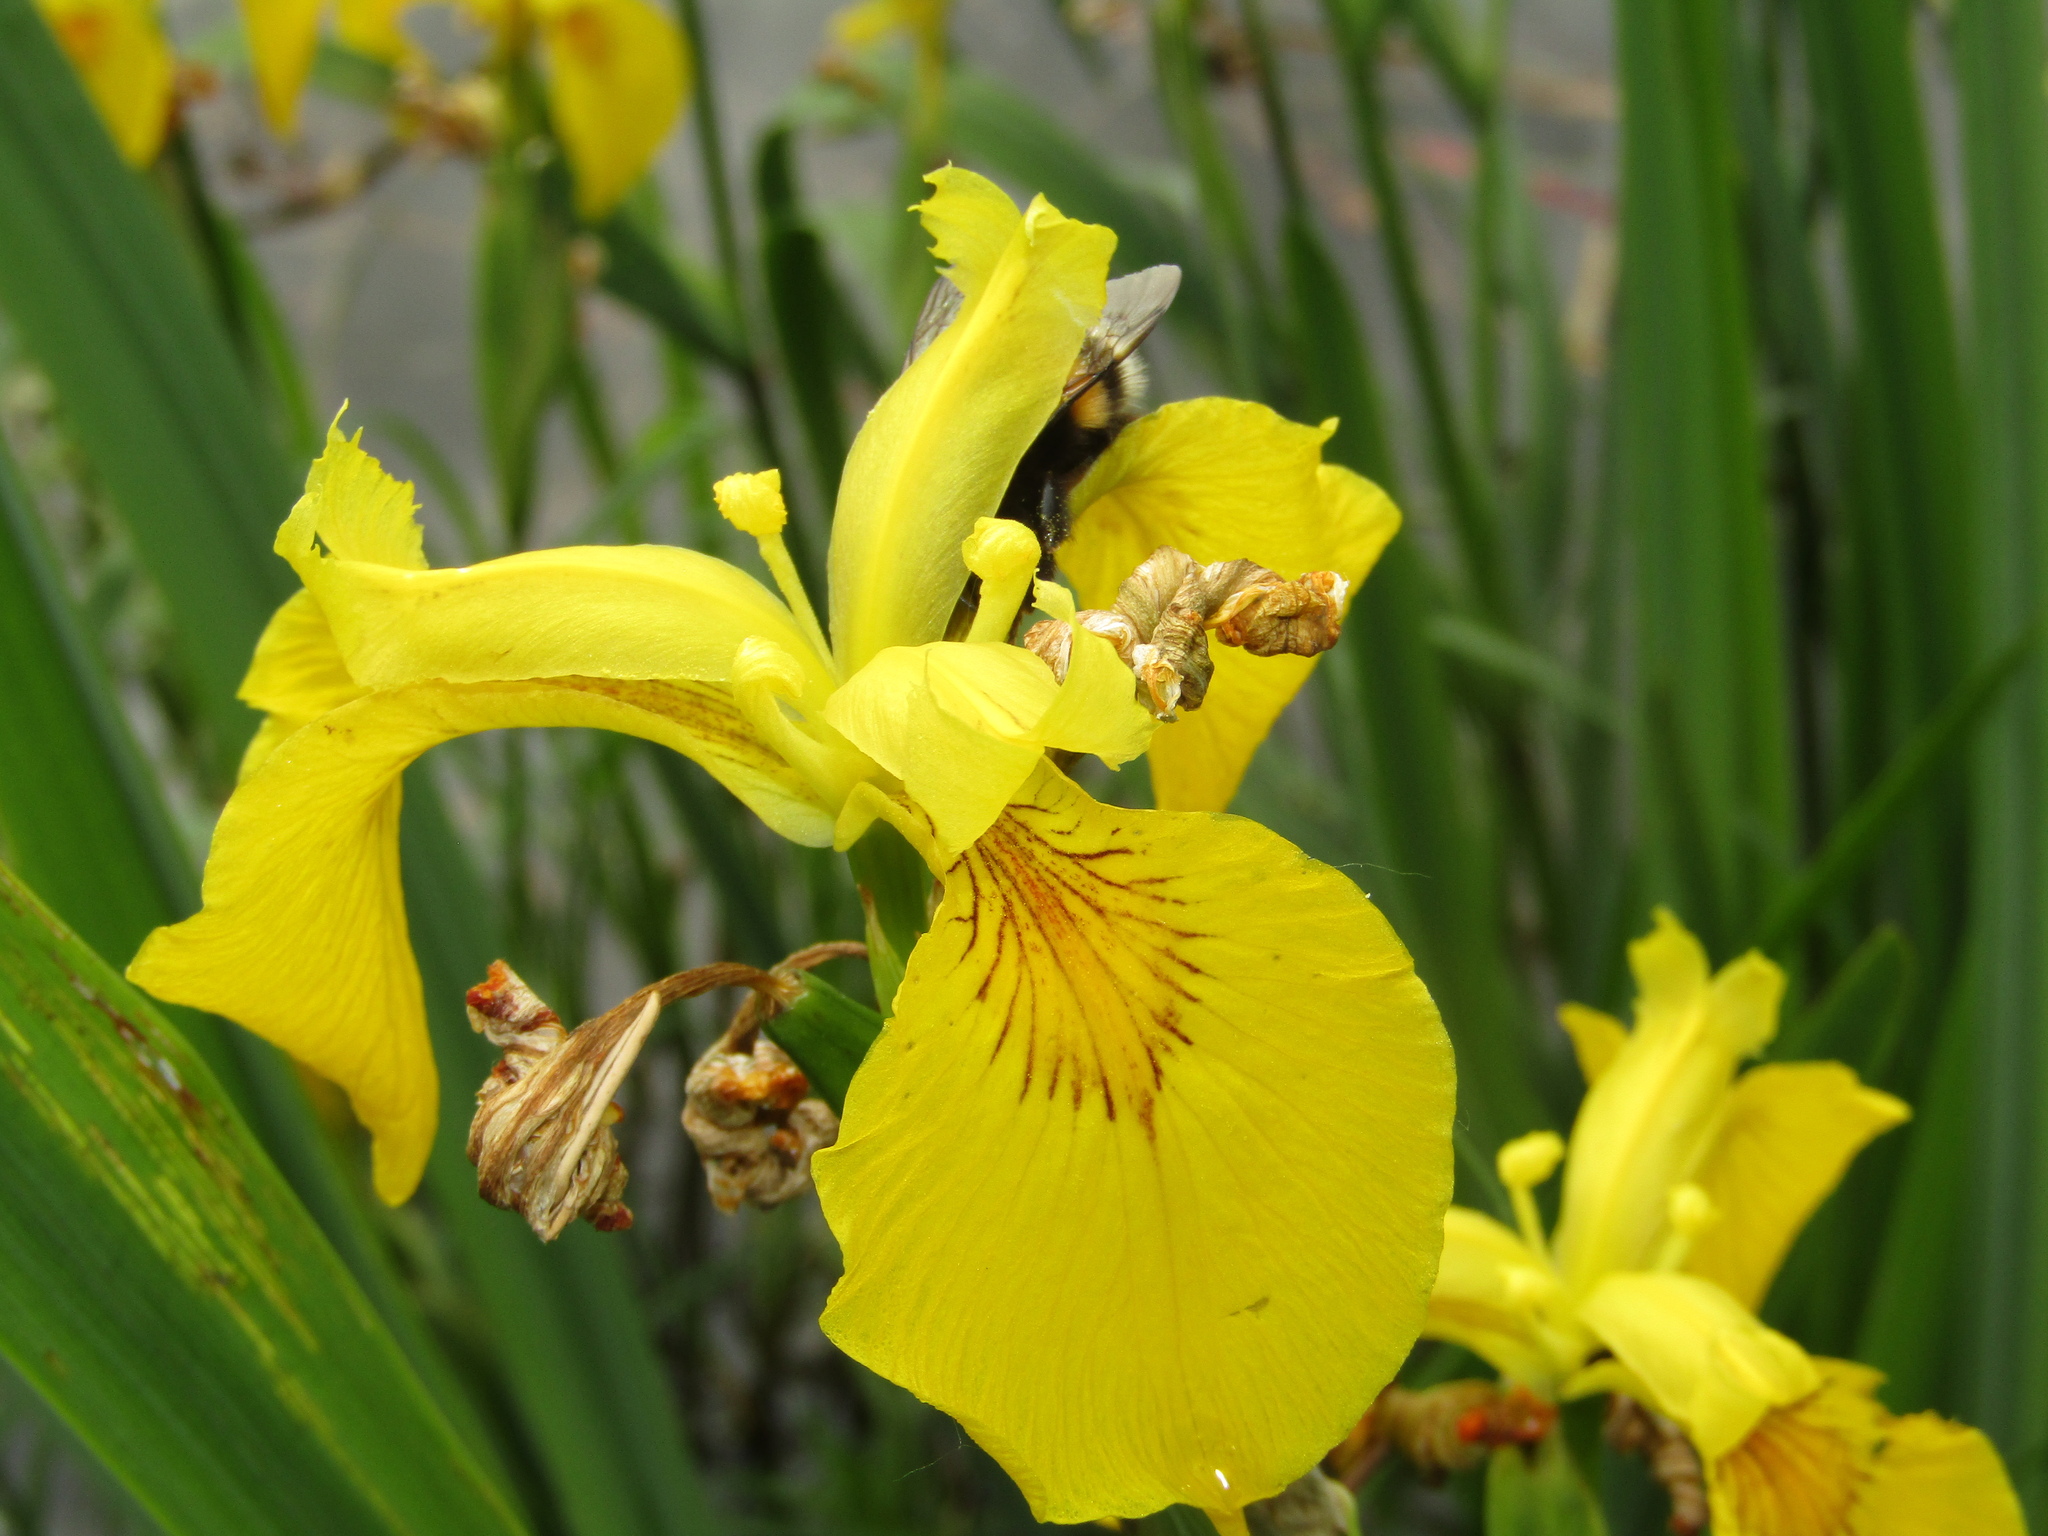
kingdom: Plantae
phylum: Tracheophyta
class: Liliopsida
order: Asparagales
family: Iridaceae
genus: Iris
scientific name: Iris pseudacorus
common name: Yellow flag
